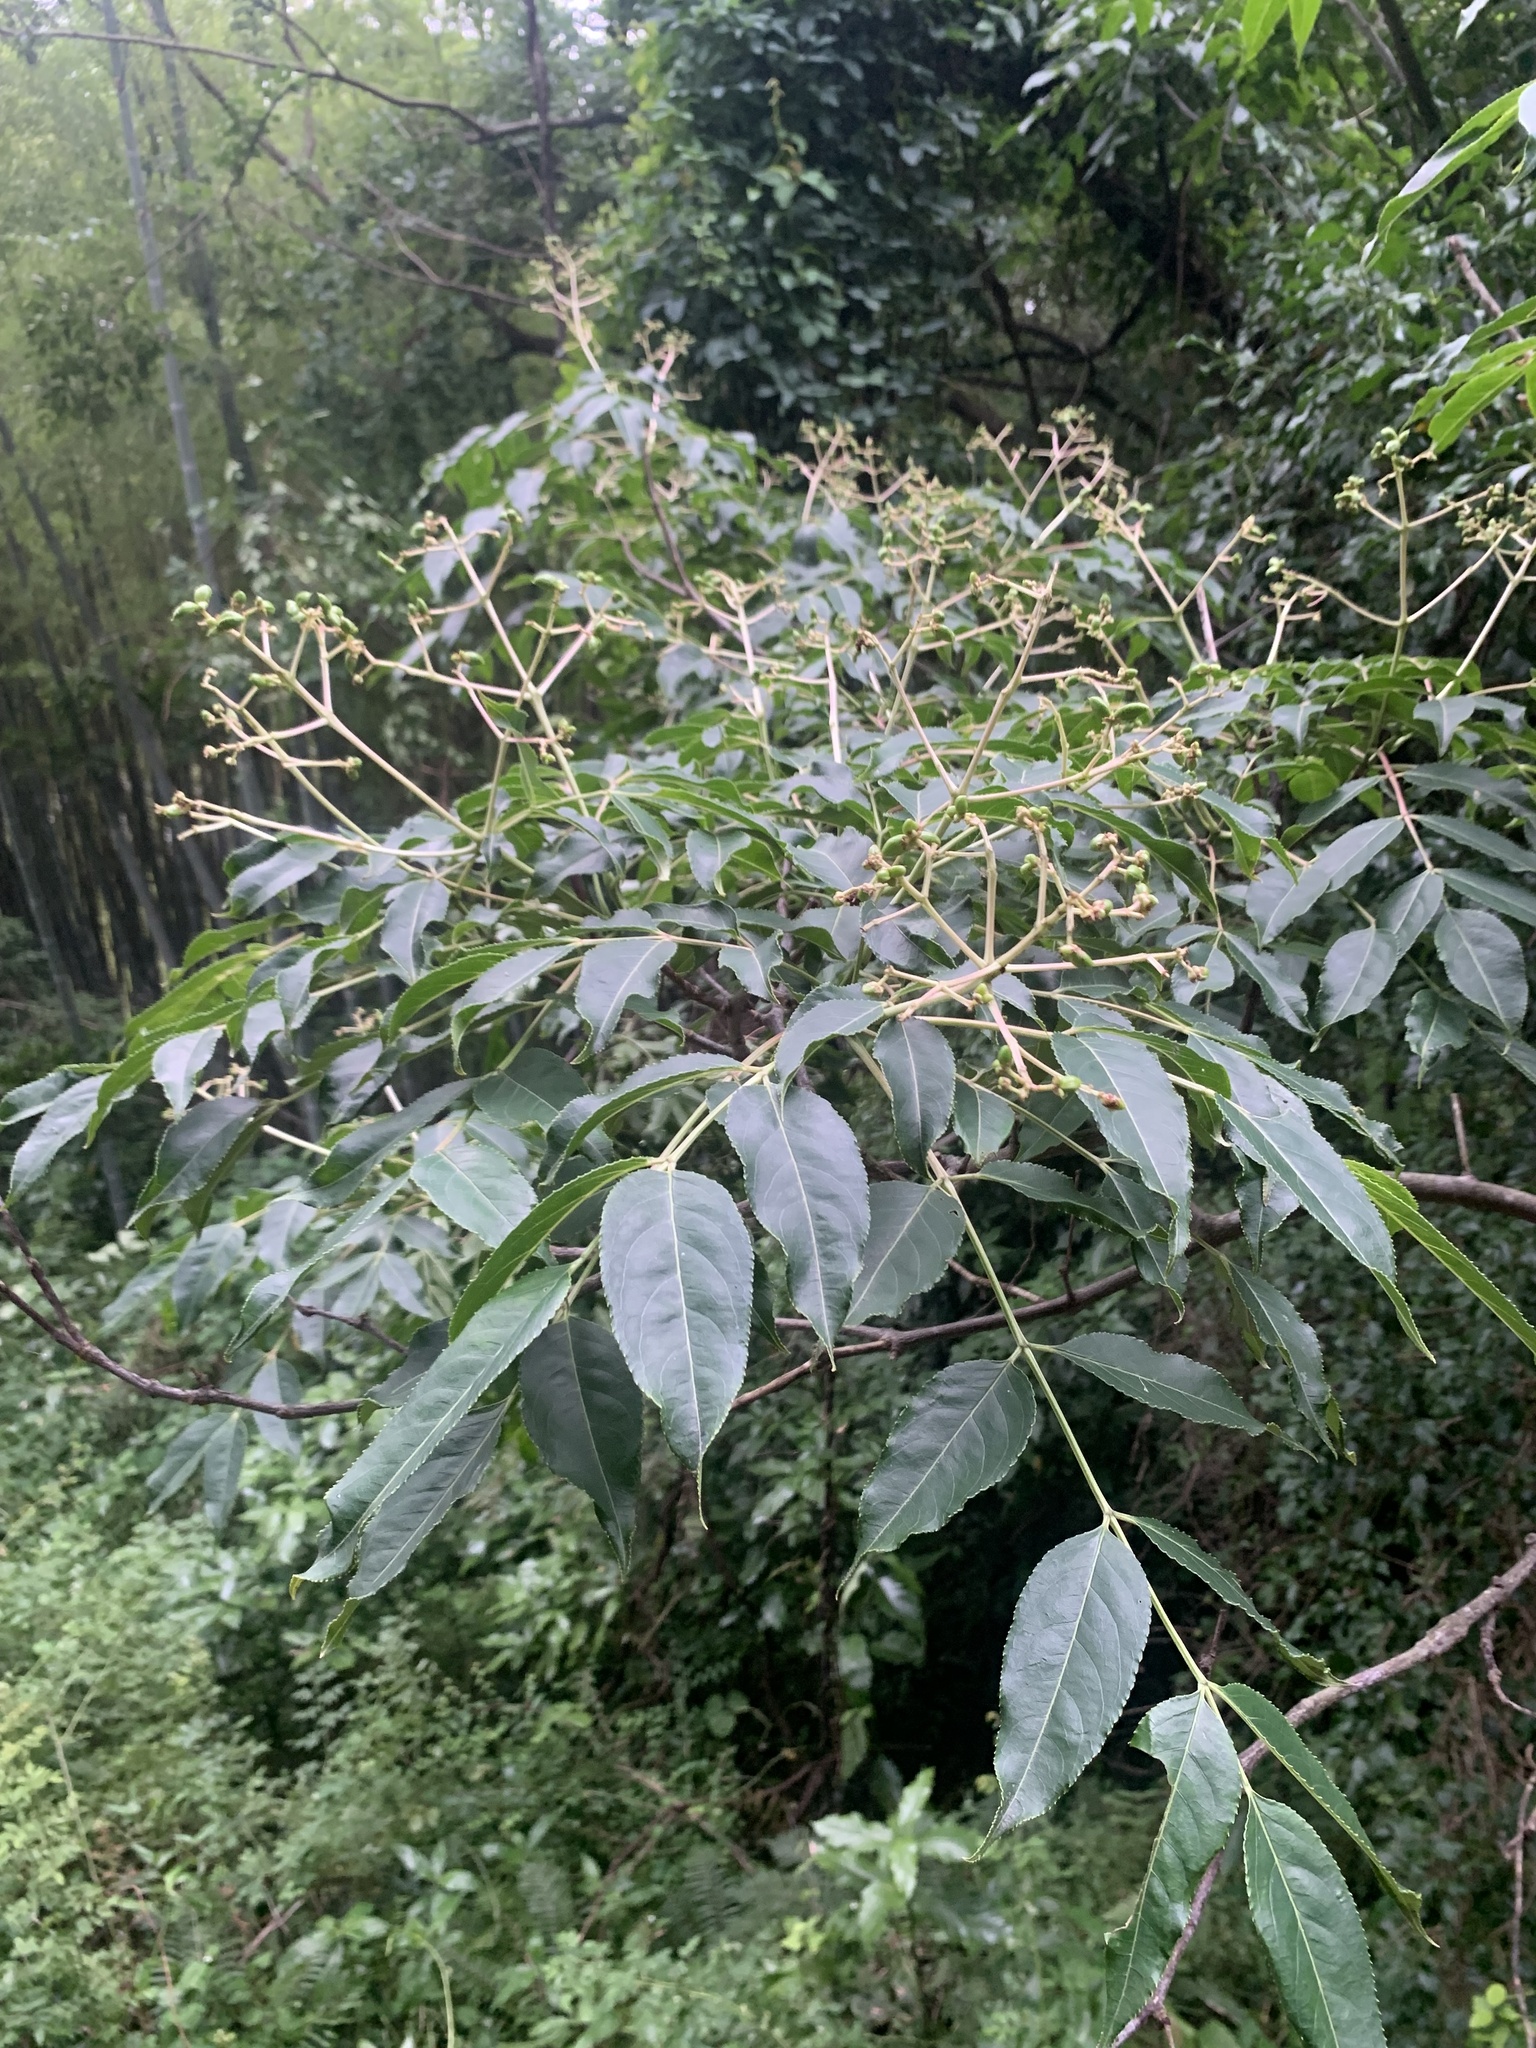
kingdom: Plantae
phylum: Tracheophyta
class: Magnoliopsida
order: Crossosomatales
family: Staphyleaceae
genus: Staphylea
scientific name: Staphylea japonica
